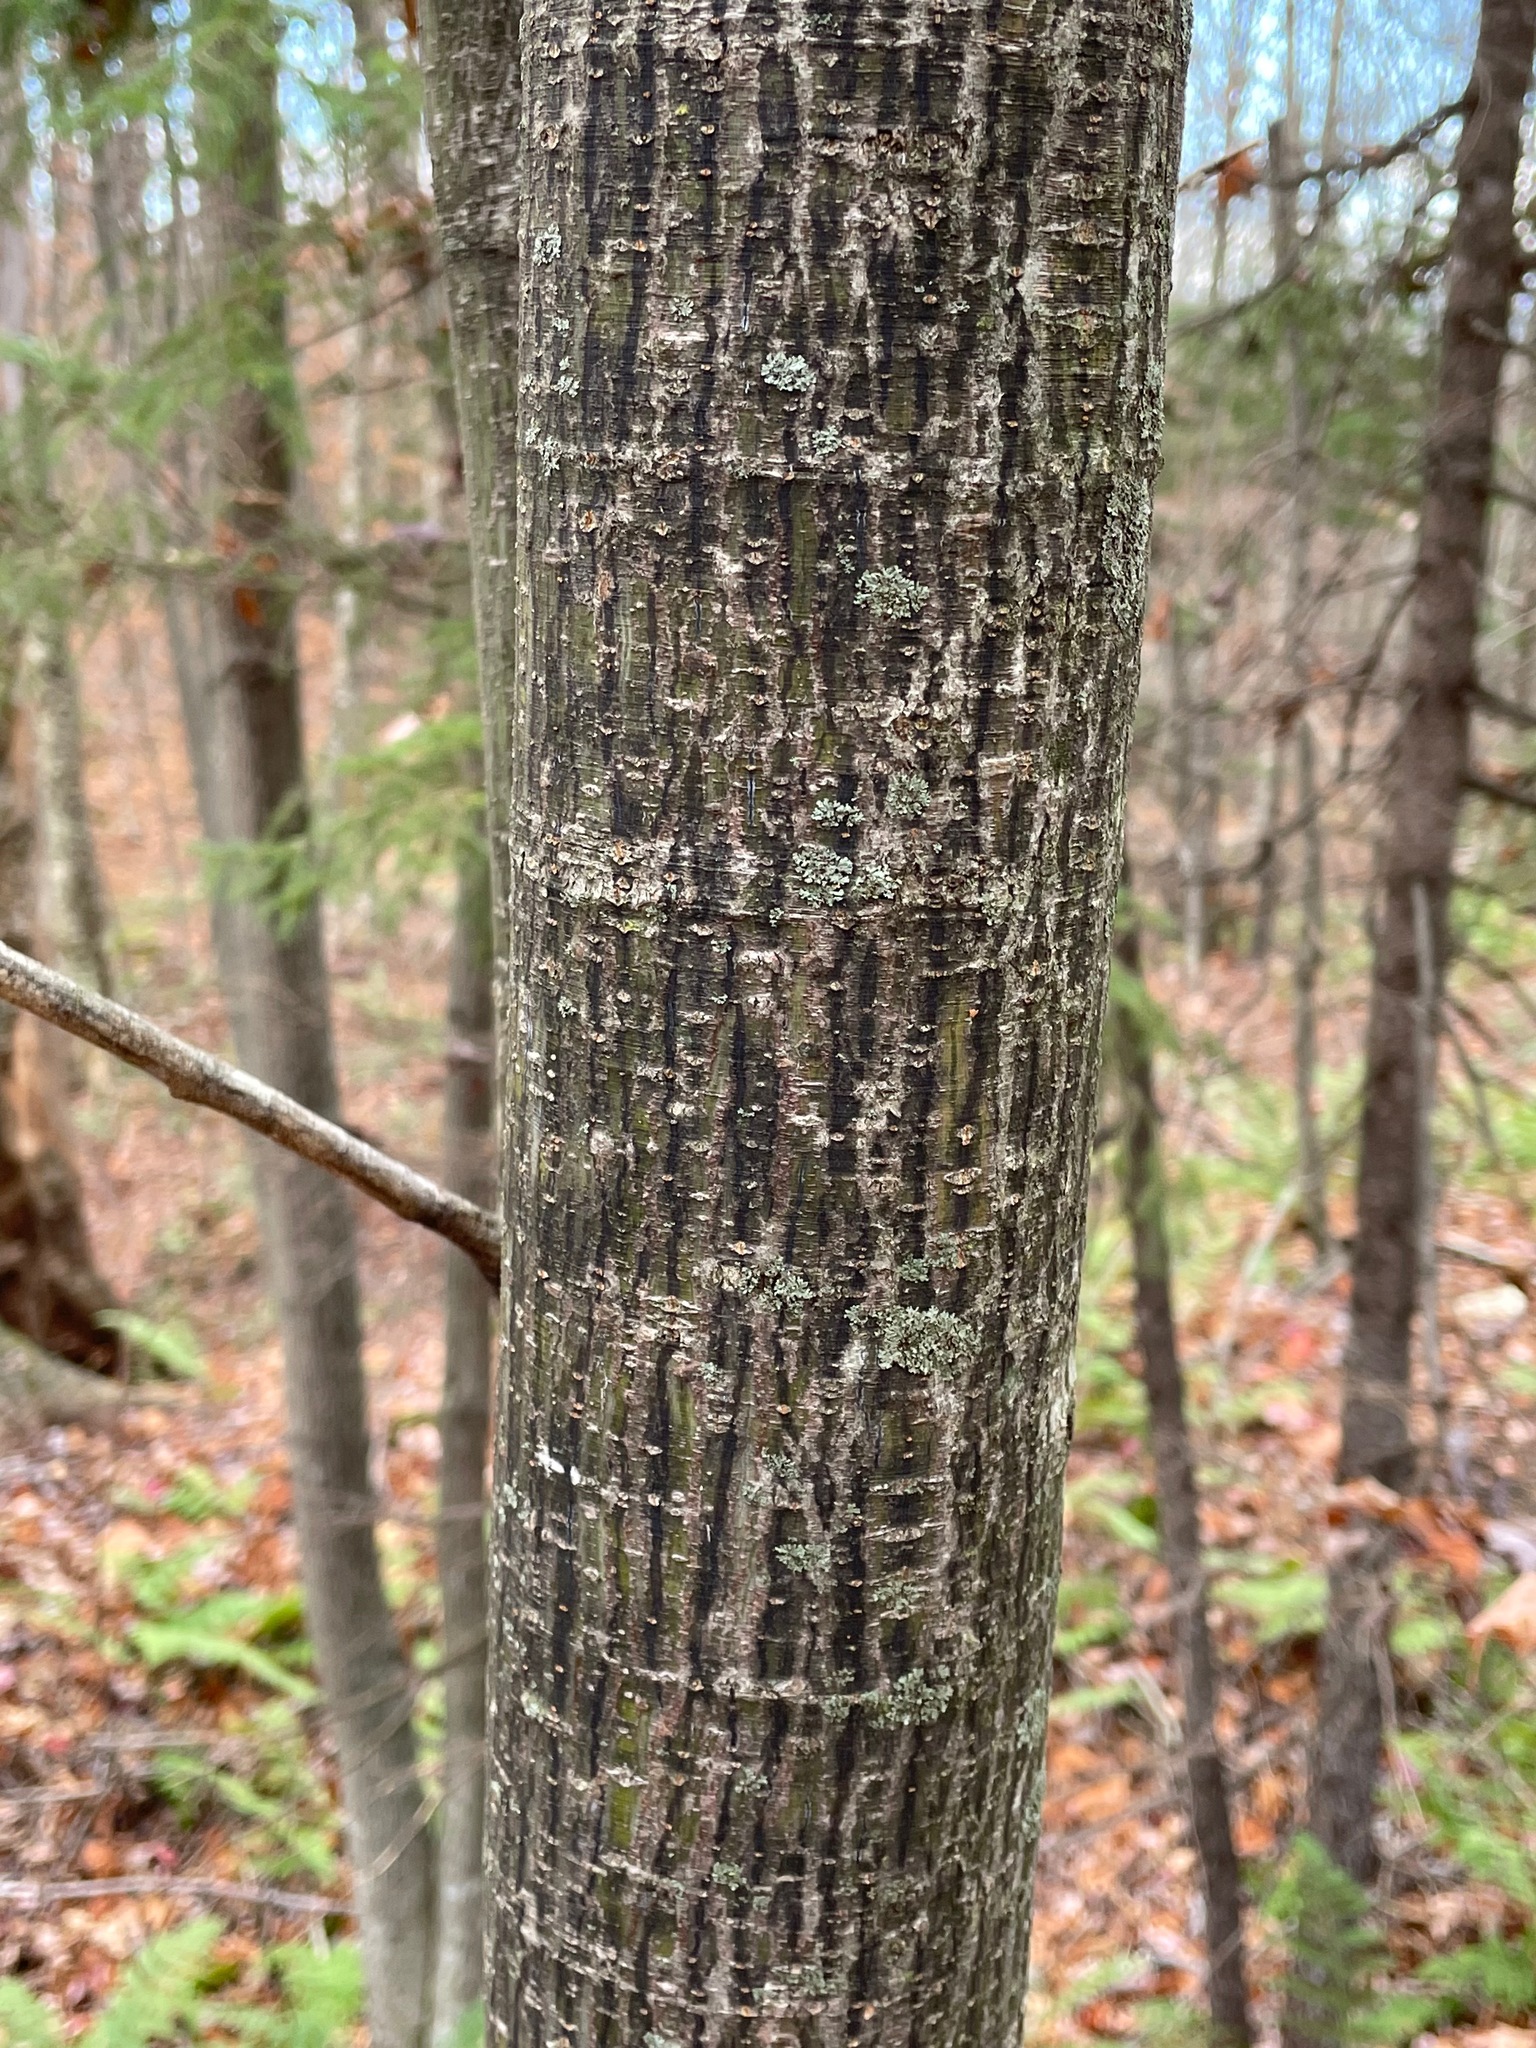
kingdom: Plantae
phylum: Tracheophyta
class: Magnoliopsida
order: Sapindales
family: Sapindaceae
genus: Acer
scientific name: Acer pensylvanicum
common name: Moosewood
